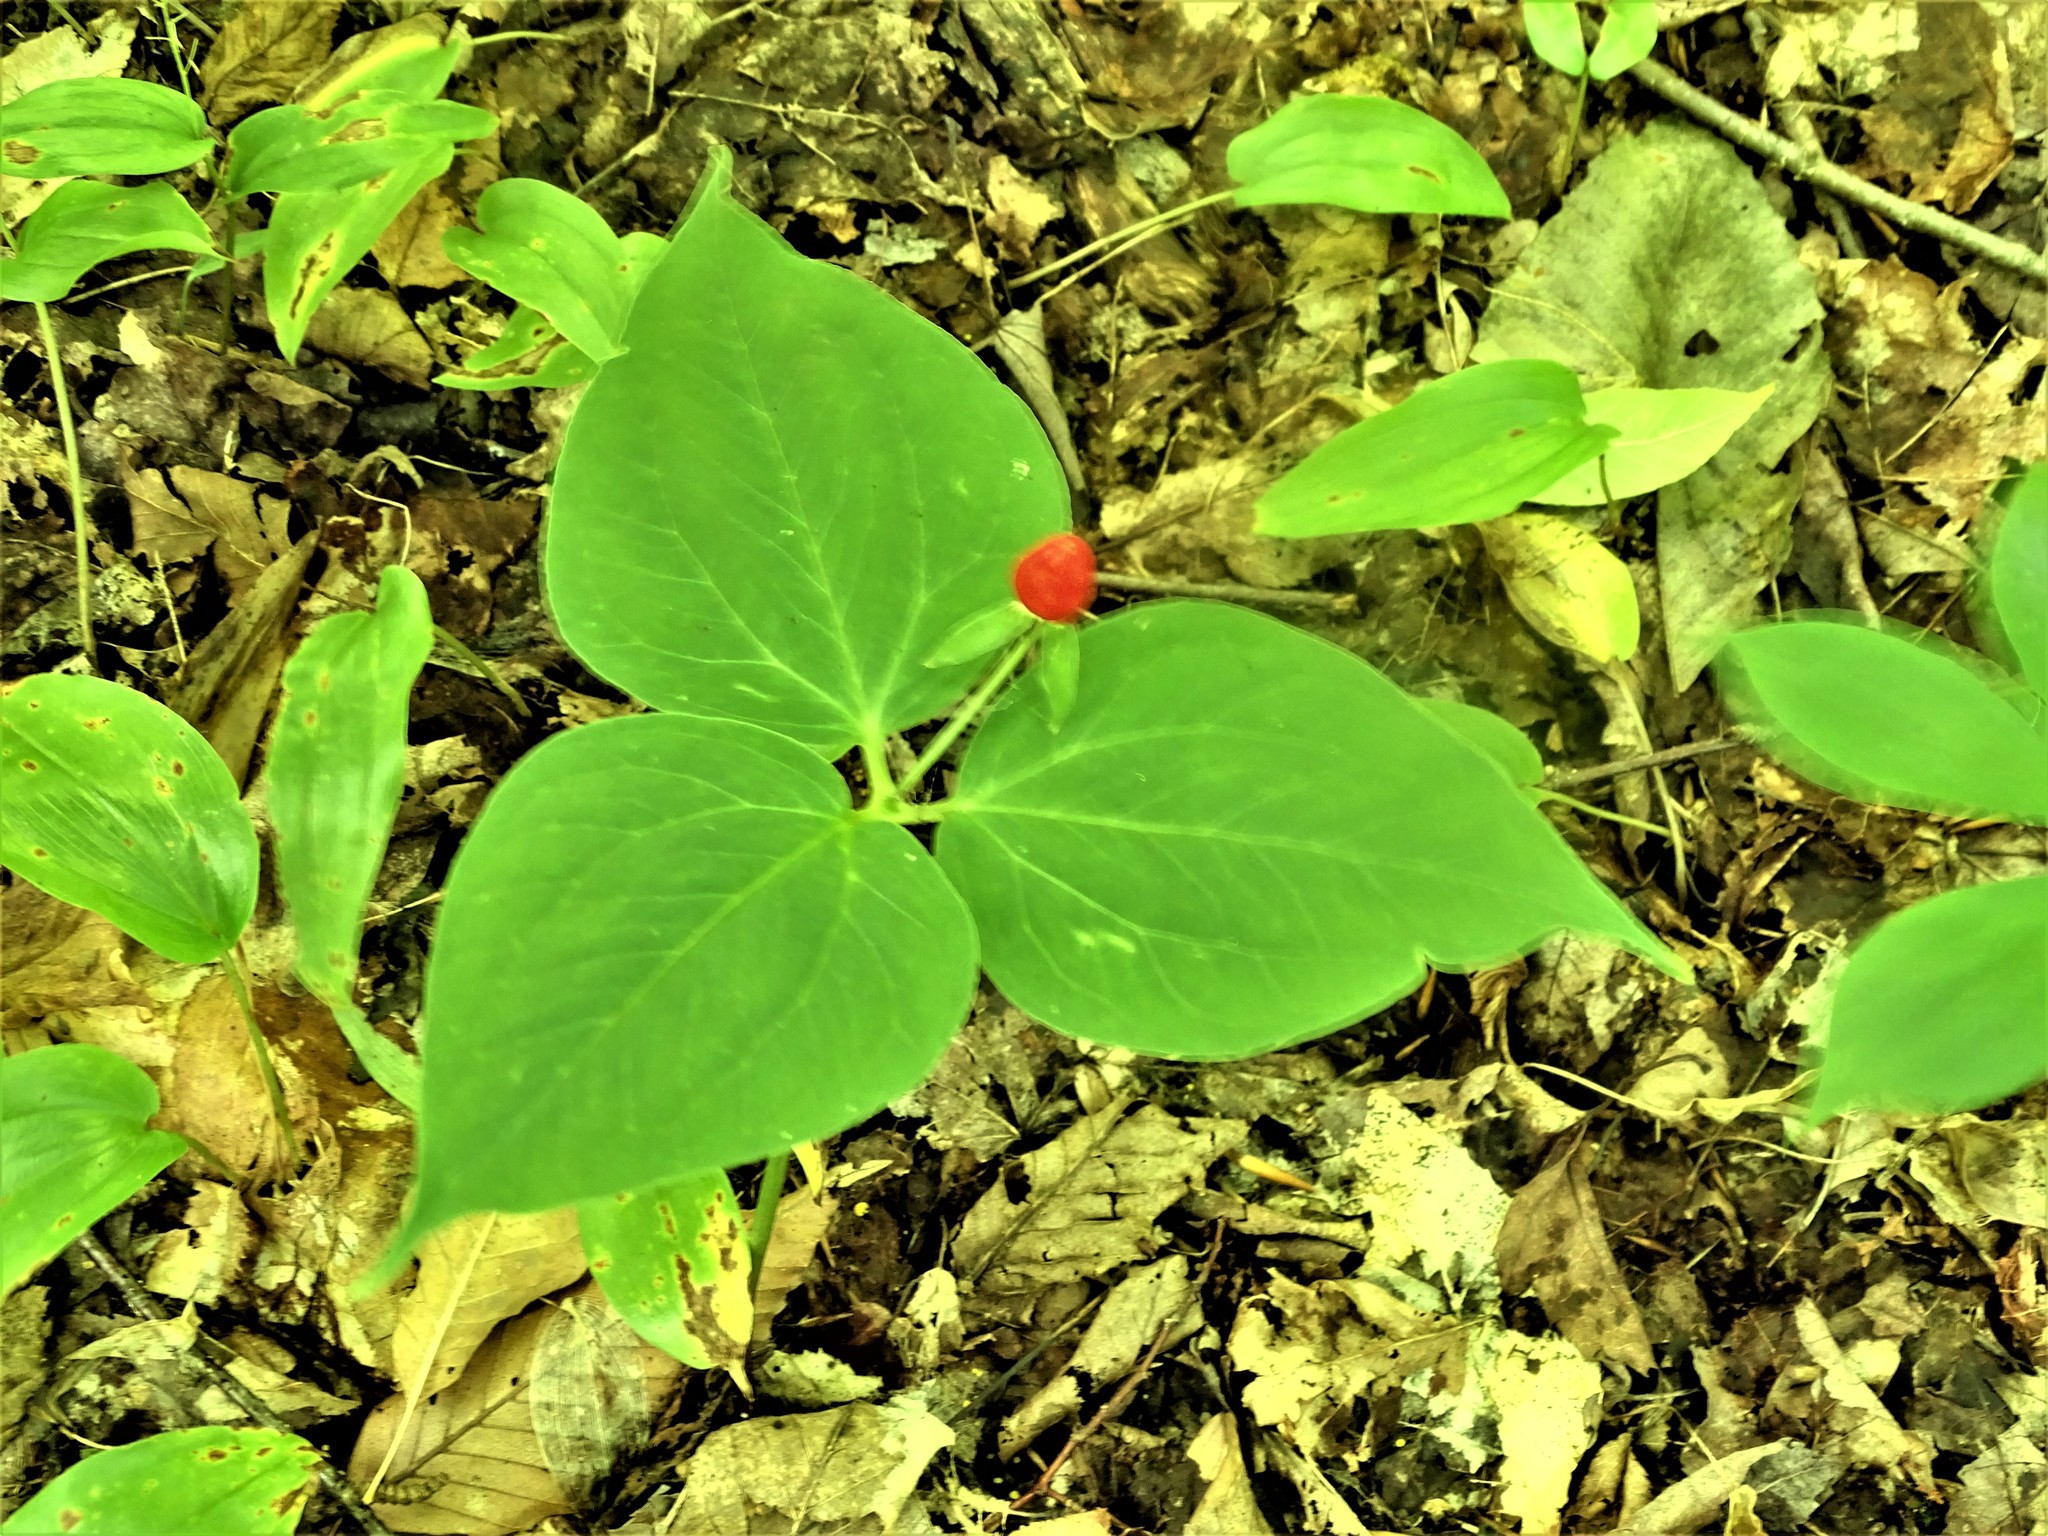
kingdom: Plantae
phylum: Tracheophyta
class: Liliopsida
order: Liliales
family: Melanthiaceae
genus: Trillium
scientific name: Trillium undulatum
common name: Paint trillium
